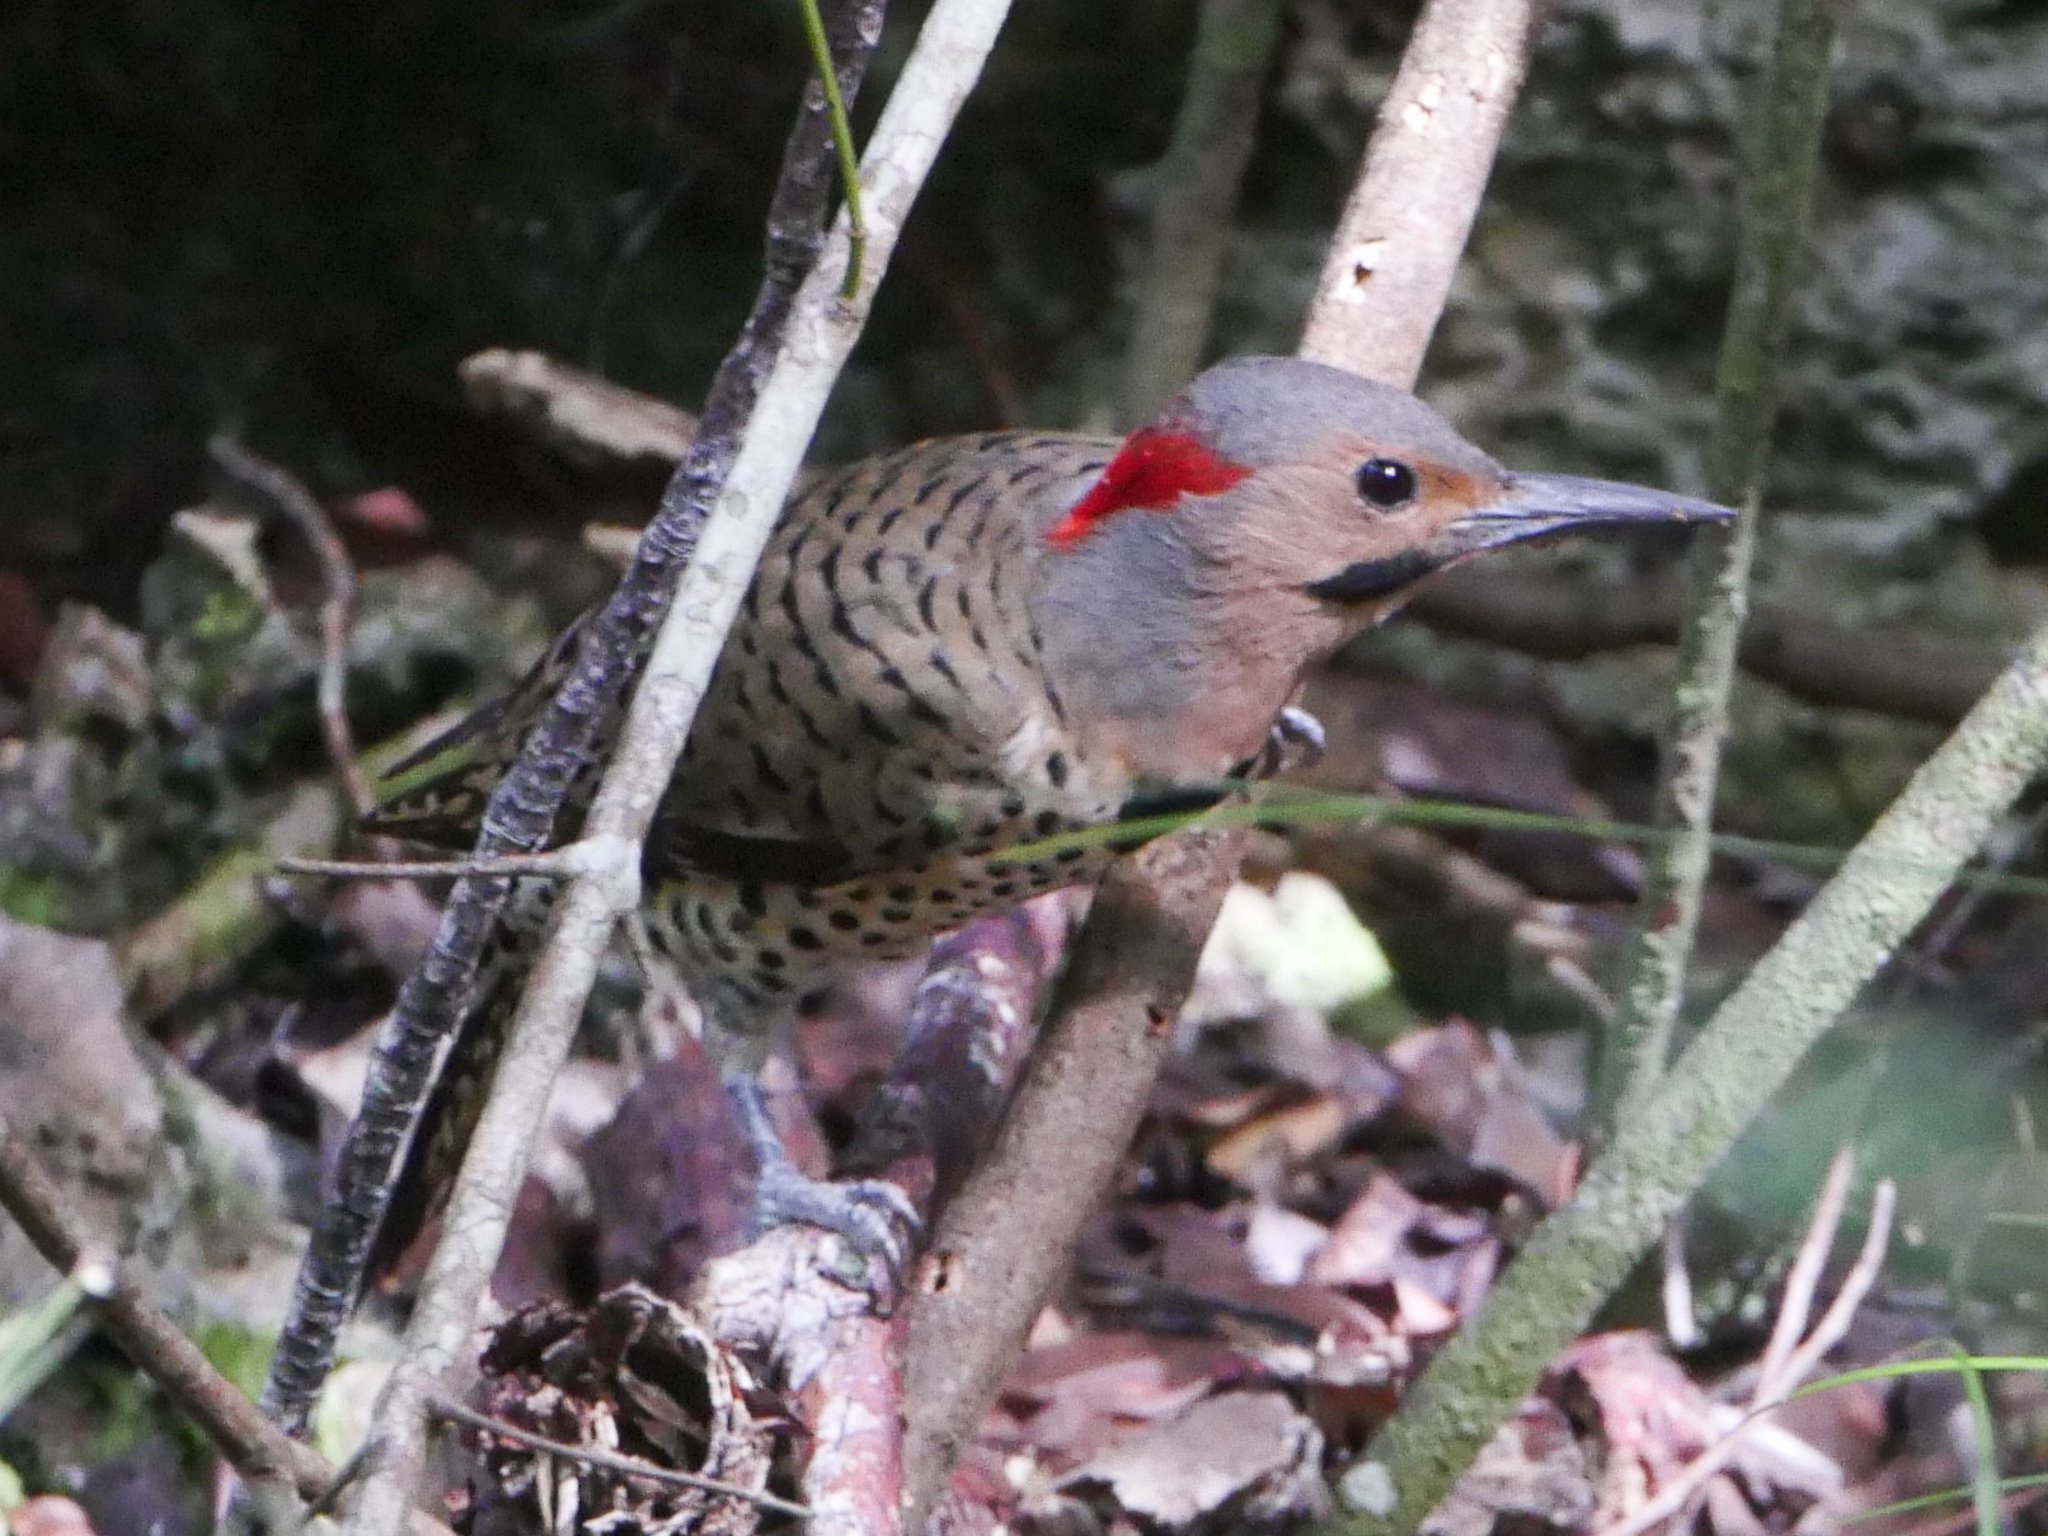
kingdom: Animalia
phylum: Chordata
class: Aves
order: Piciformes
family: Picidae
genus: Colaptes
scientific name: Colaptes auratus
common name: Northern flicker
